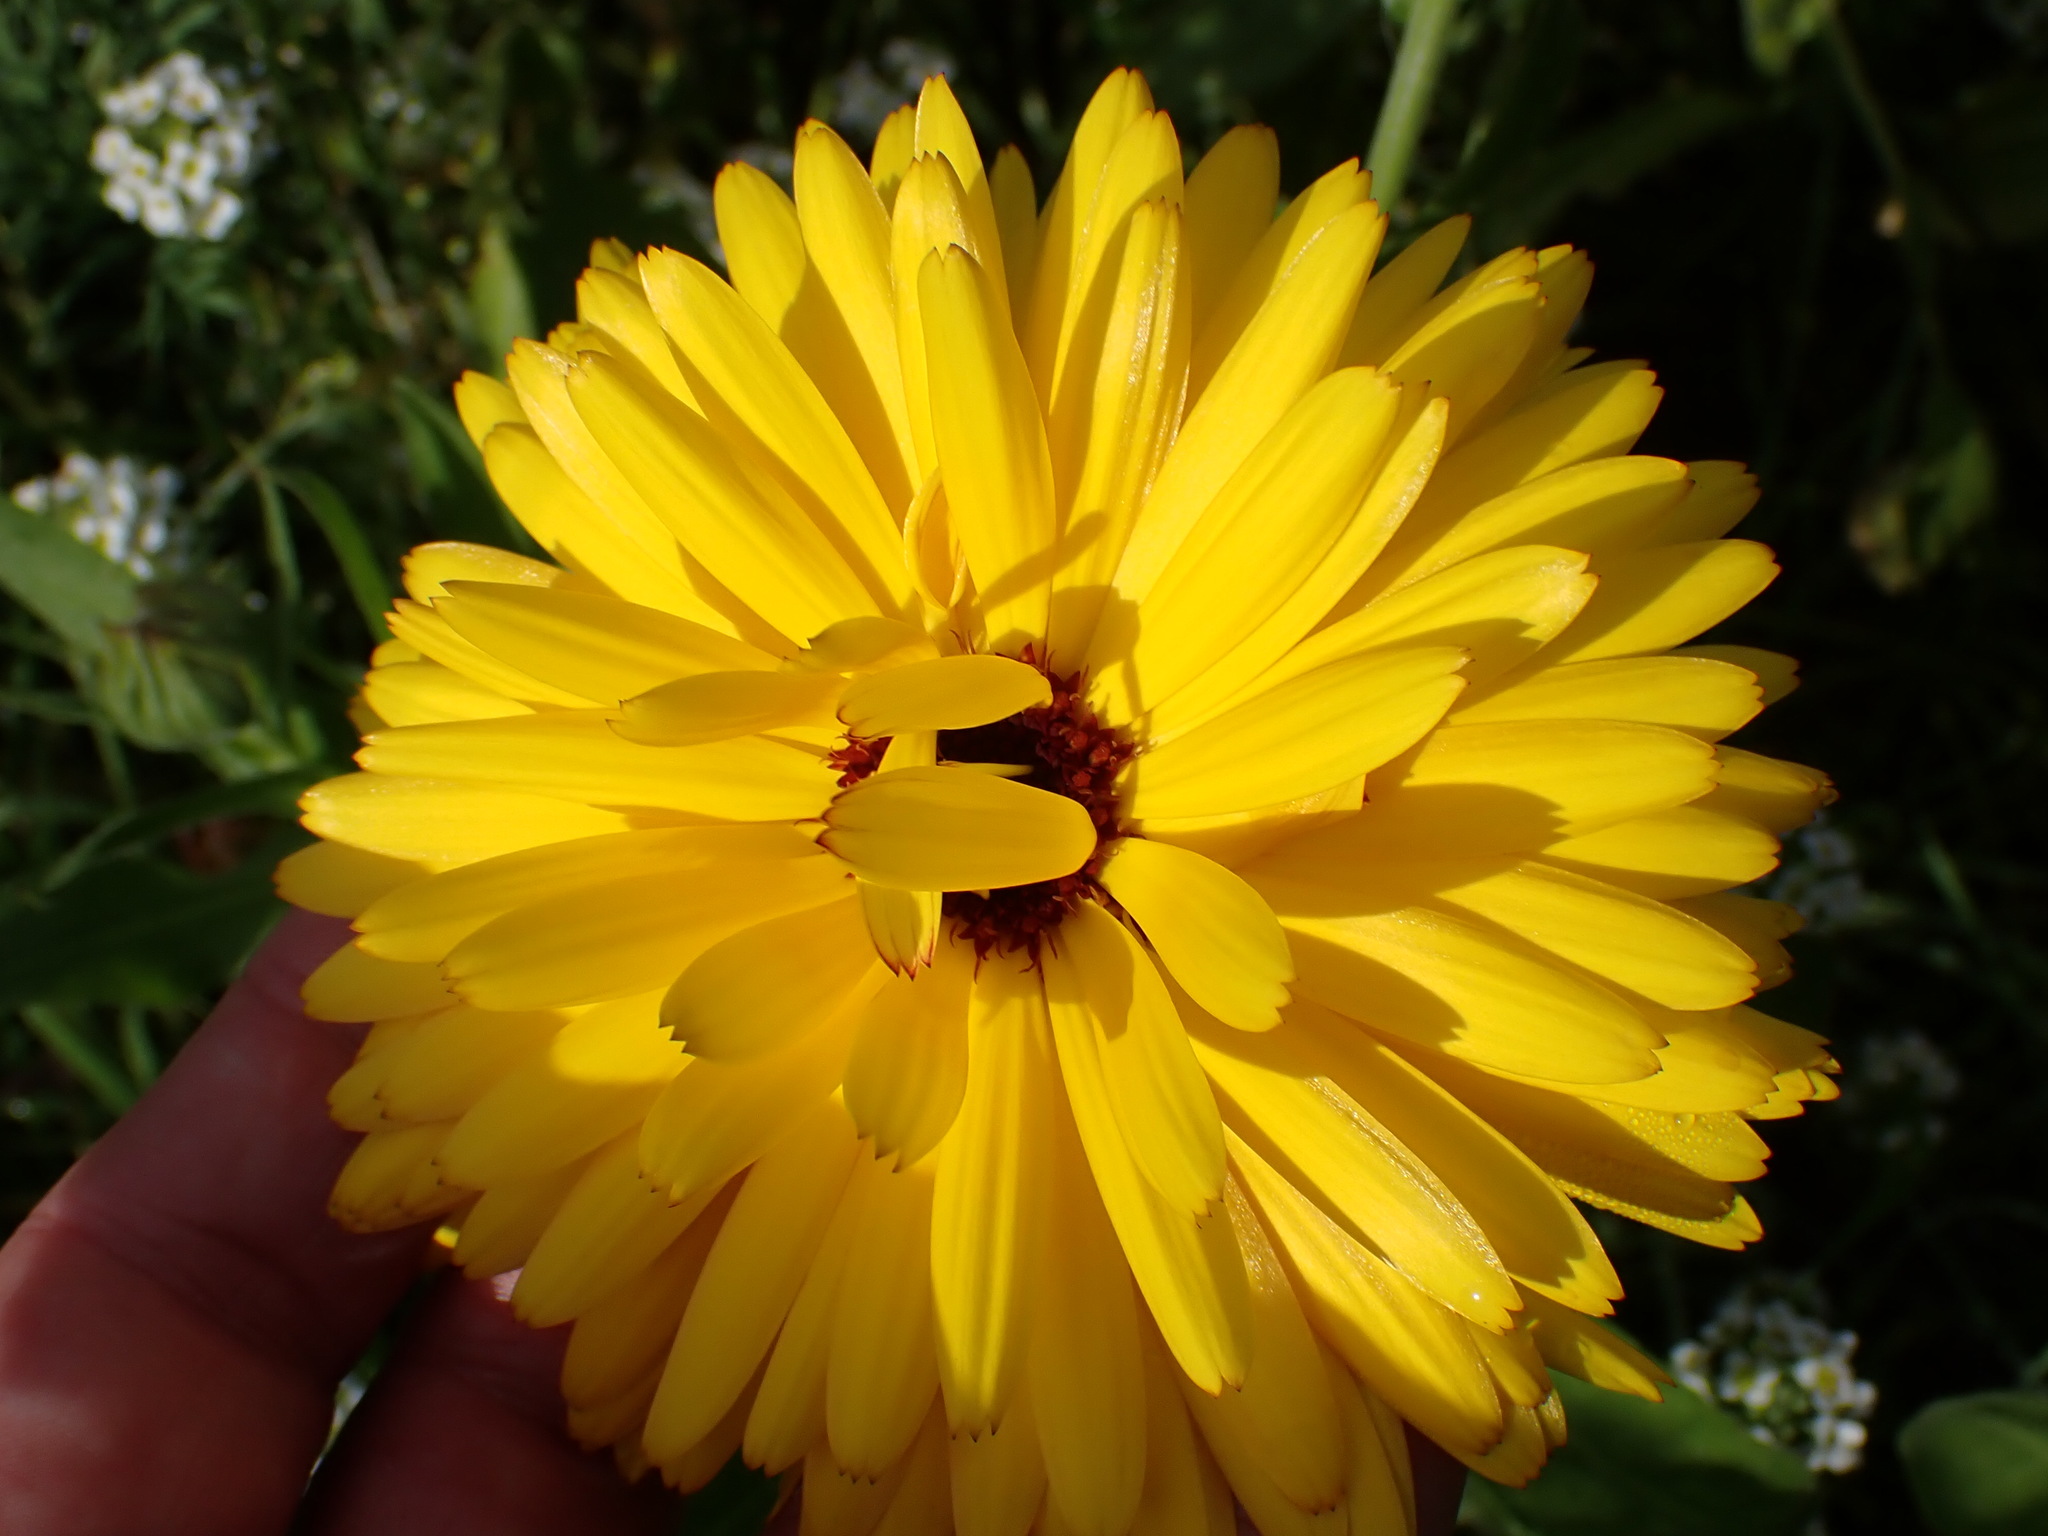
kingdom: Plantae
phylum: Tracheophyta
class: Magnoliopsida
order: Asterales
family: Asteraceae
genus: Calendula
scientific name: Calendula officinalis
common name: Pot marigold
